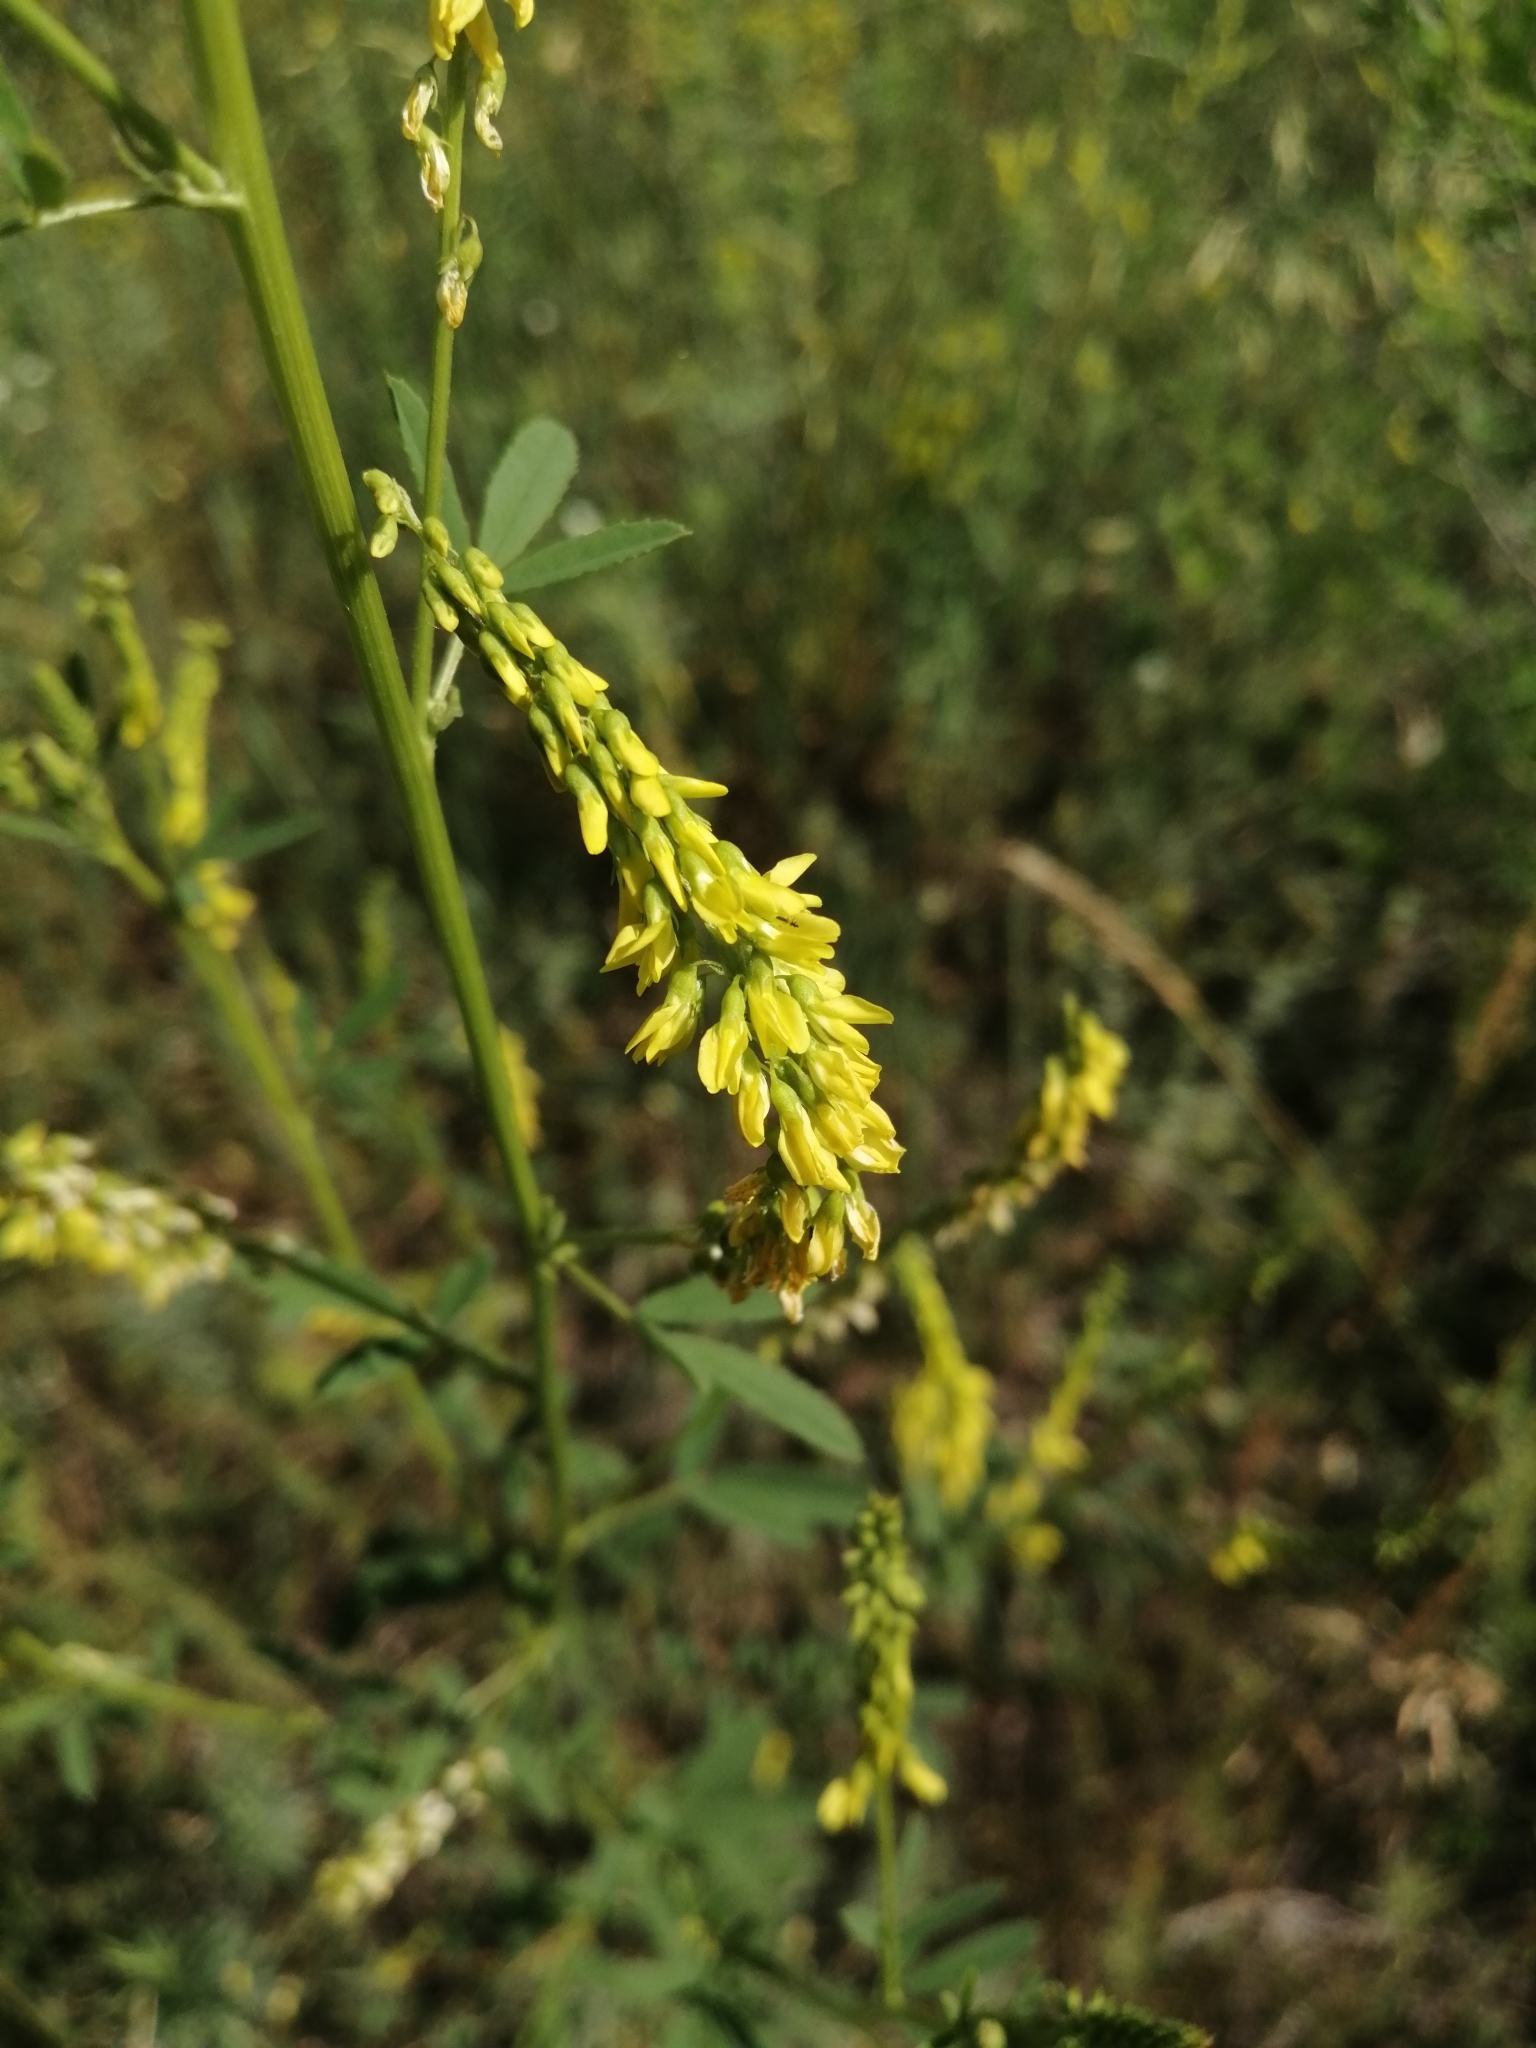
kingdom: Plantae
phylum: Tracheophyta
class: Magnoliopsida
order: Fabales
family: Fabaceae
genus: Melilotus
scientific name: Melilotus officinalis
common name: Sweetclover
